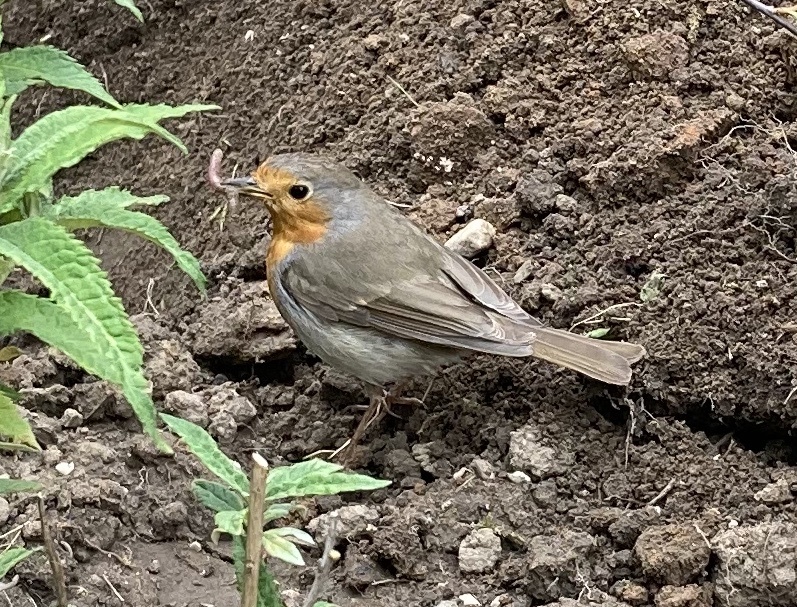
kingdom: Animalia
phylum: Chordata
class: Aves
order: Passeriformes
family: Muscicapidae
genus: Erithacus
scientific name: Erithacus rubecula
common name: European robin
